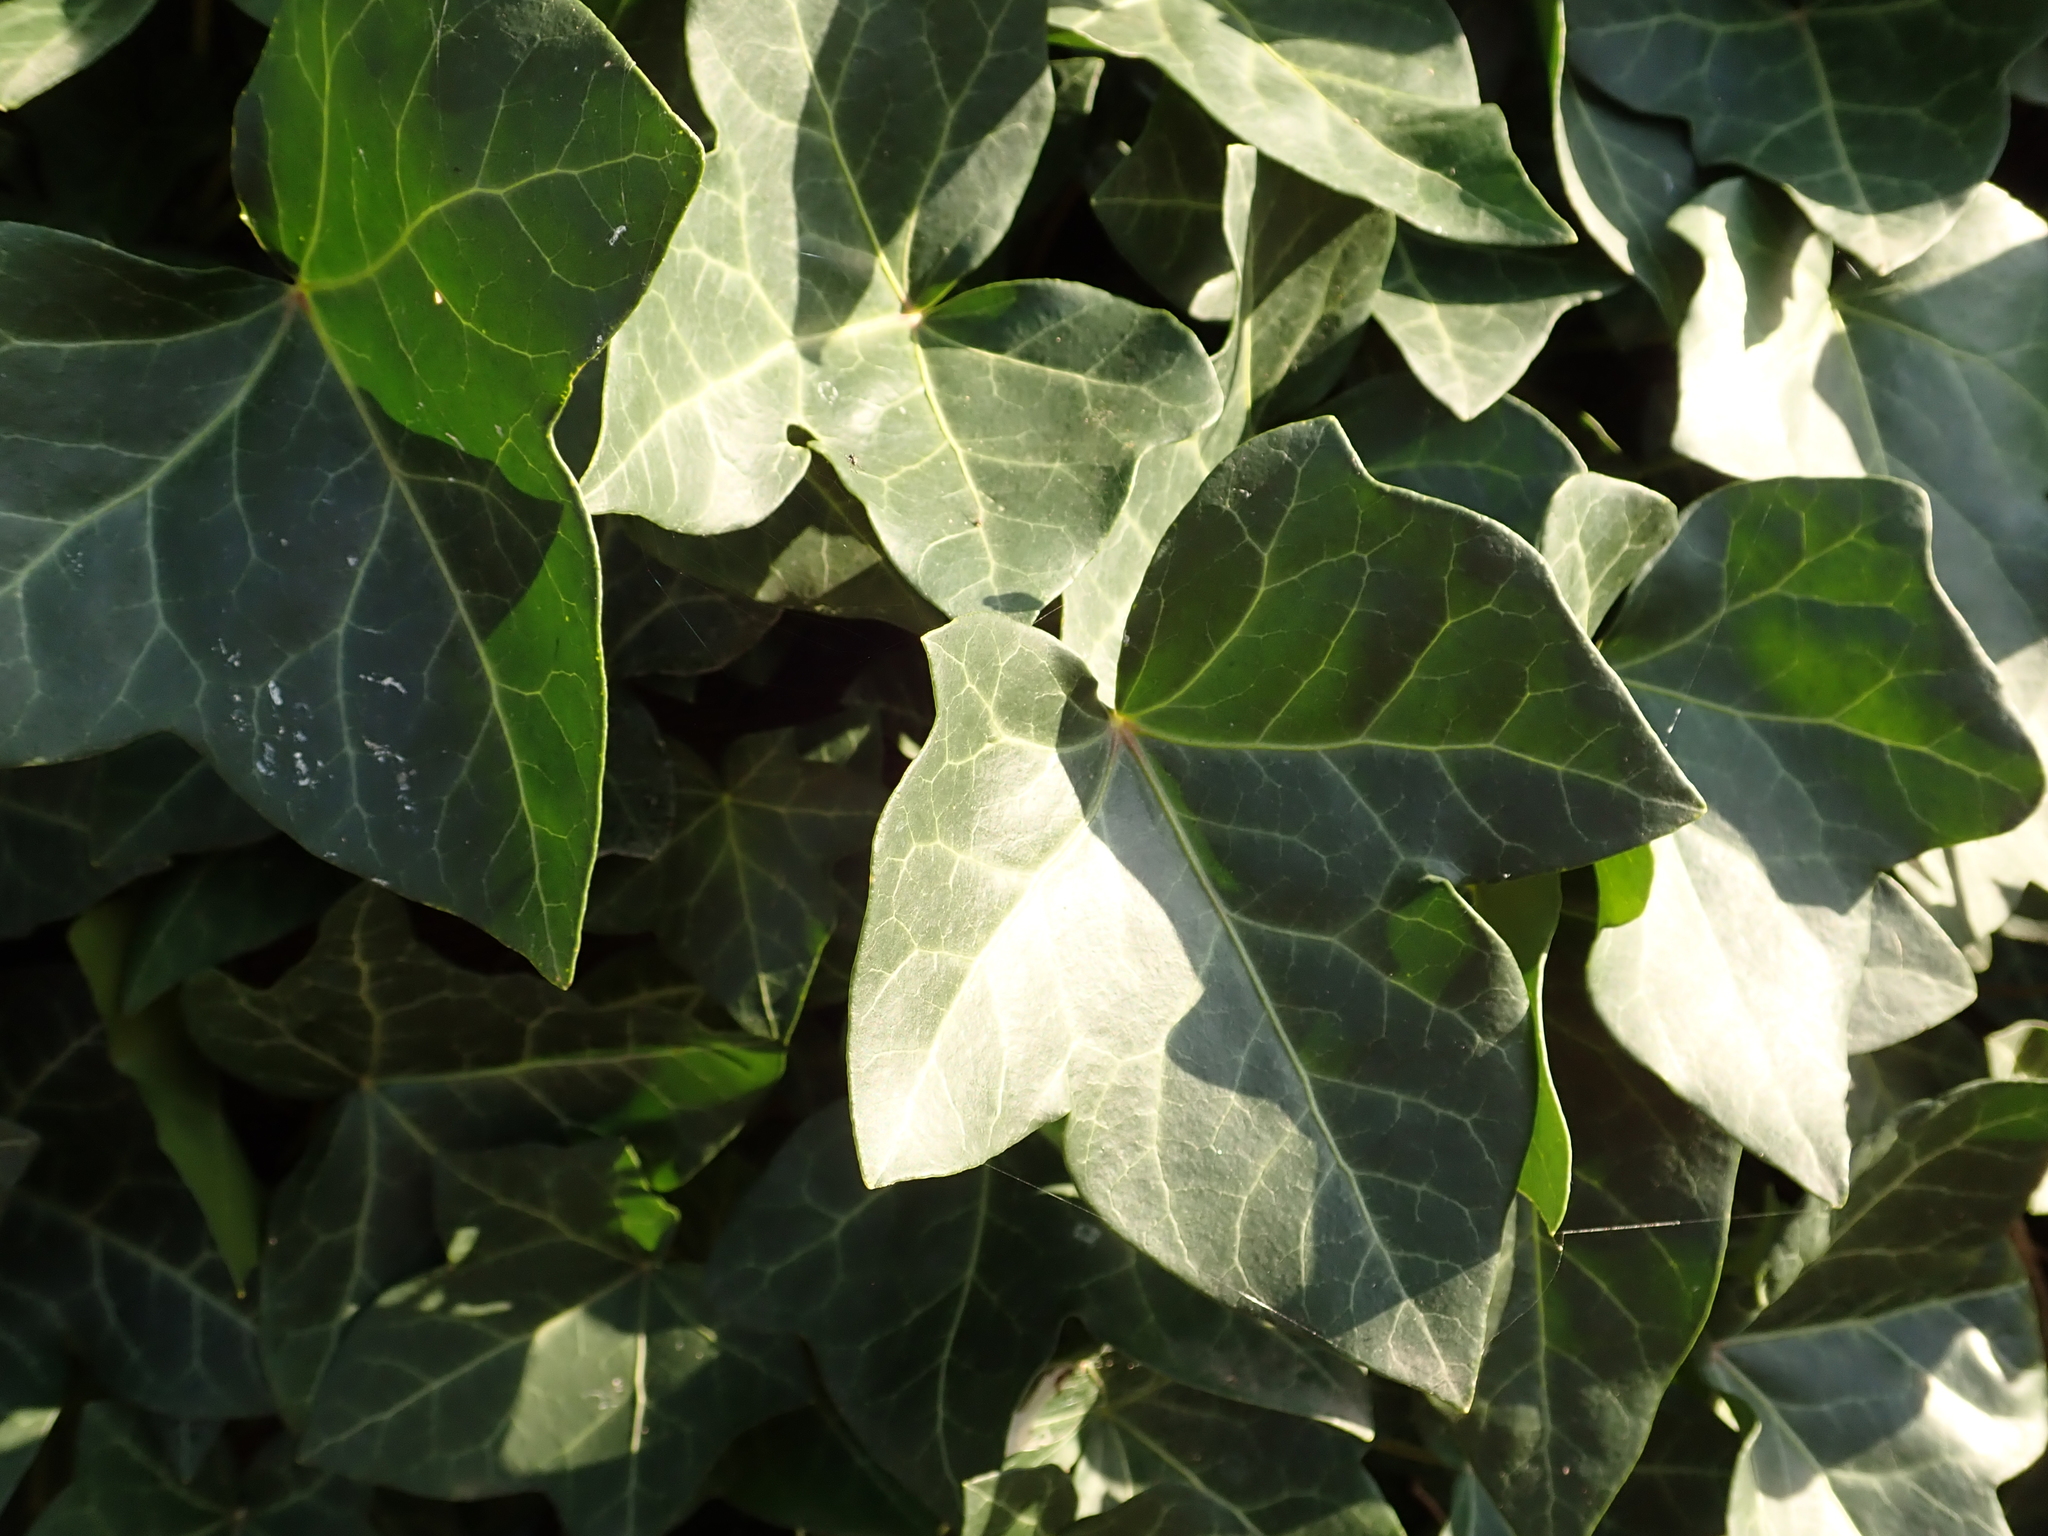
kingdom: Plantae
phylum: Tracheophyta
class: Magnoliopsida
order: Apiales
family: Araliaceae
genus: Hedera
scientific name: Hedera helix
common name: Ivy
